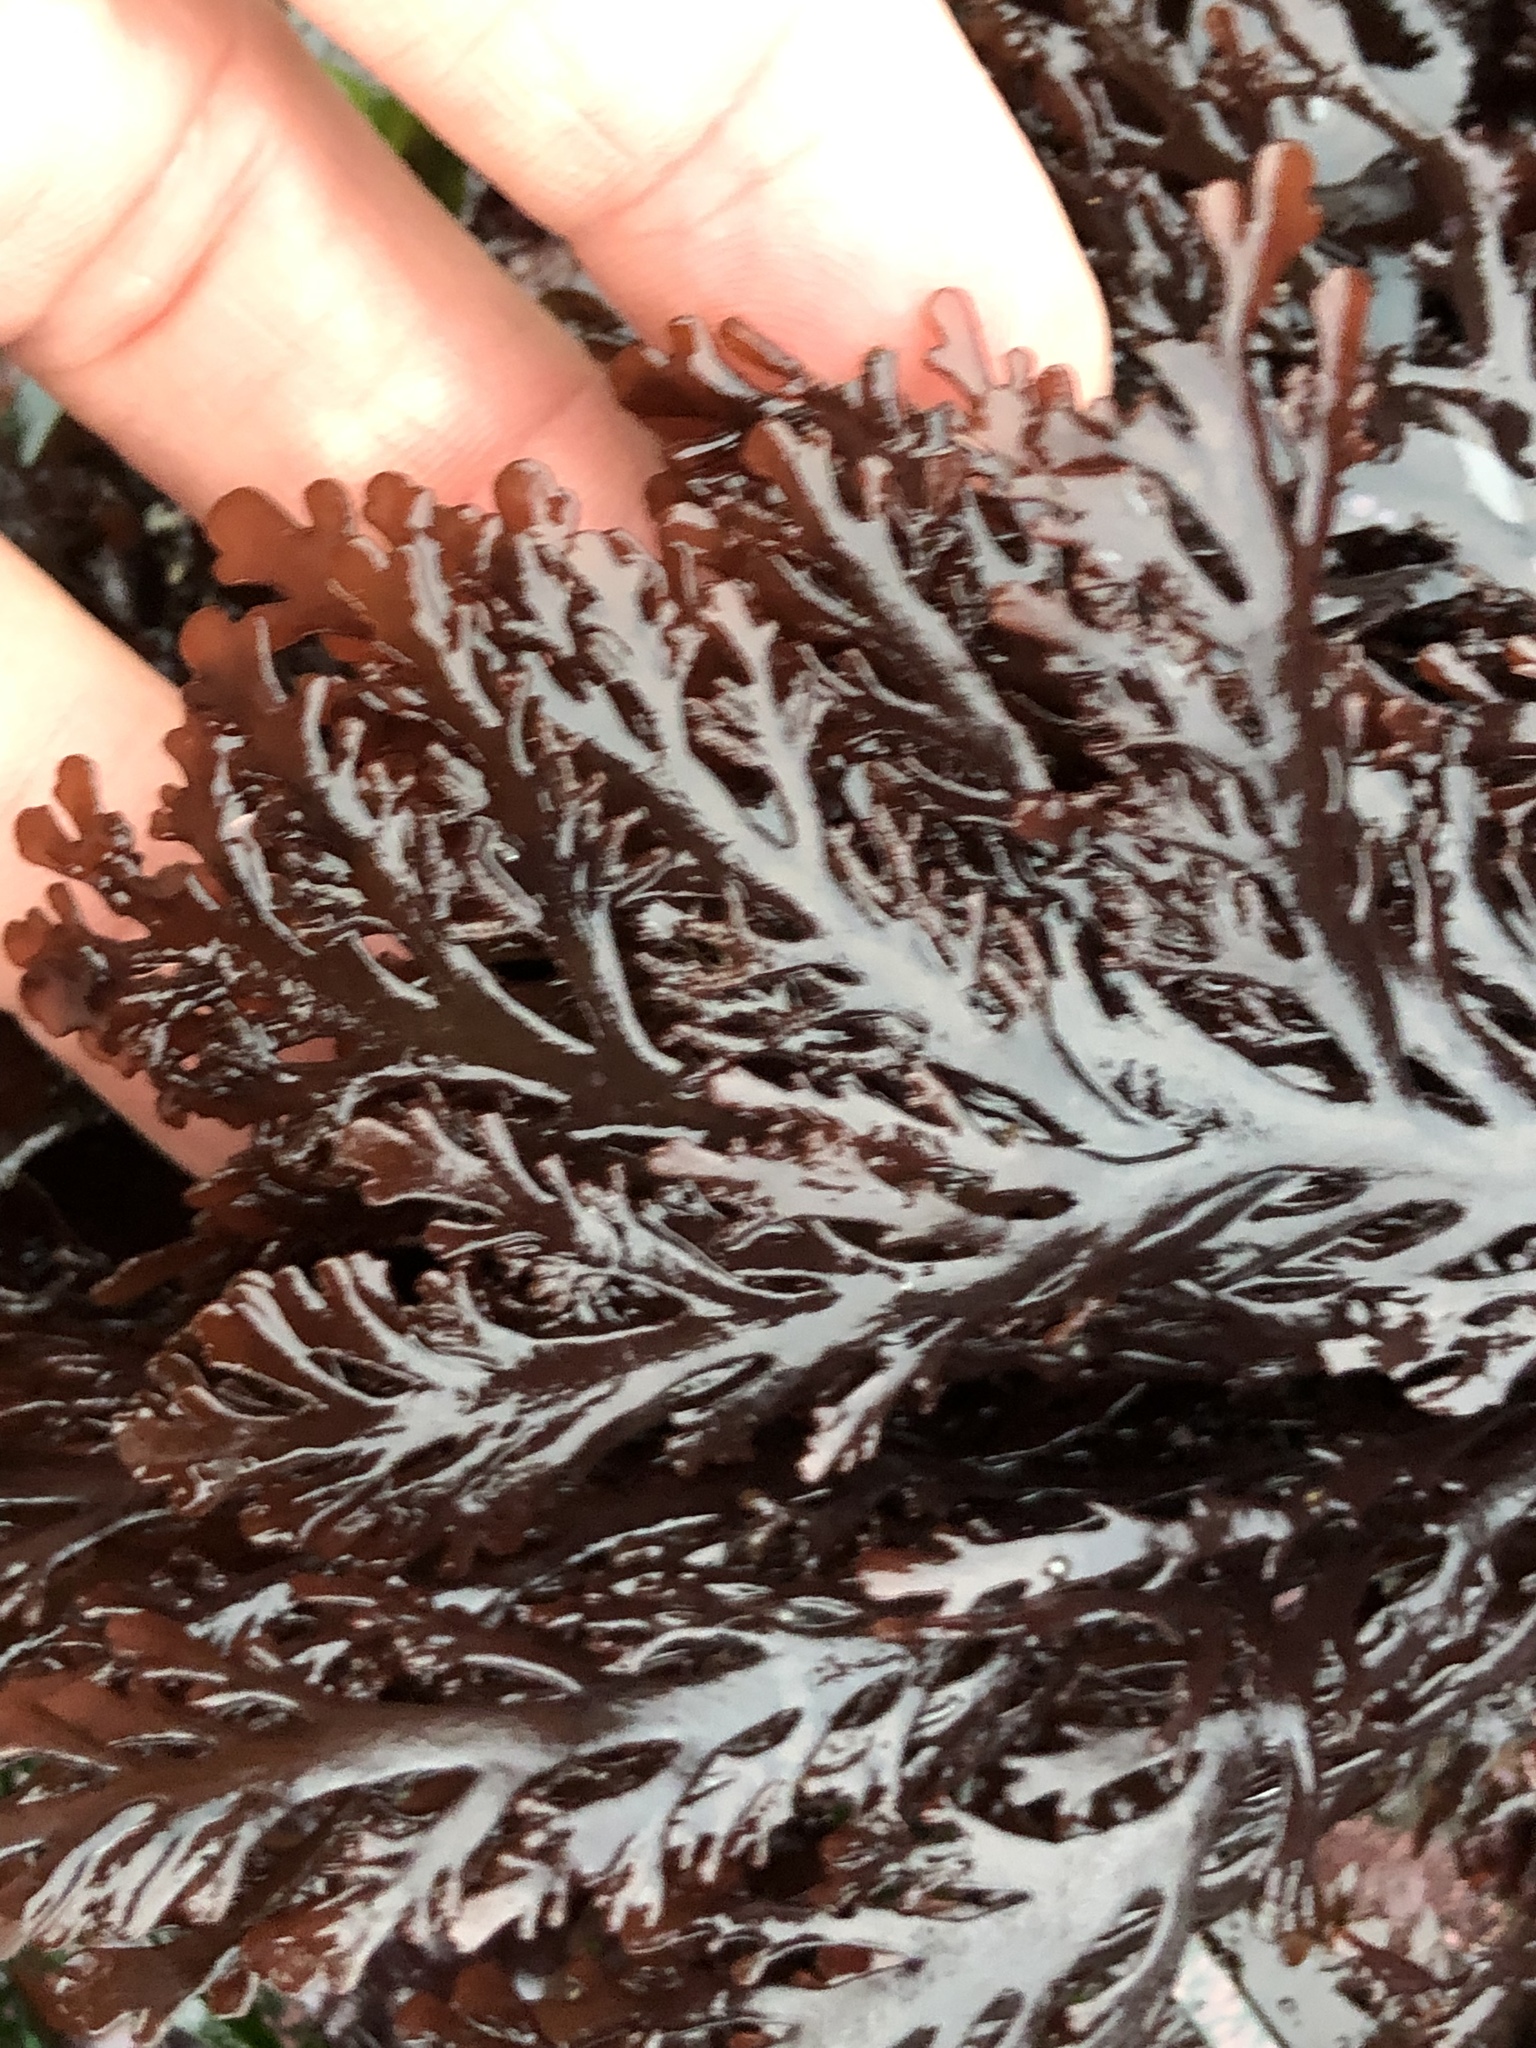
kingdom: Plantae
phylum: Rhodophyta
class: Florideophyceae
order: Ceramiales
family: Rhodomelaceae
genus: Osmundea
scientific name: Osmundea spectabilis
